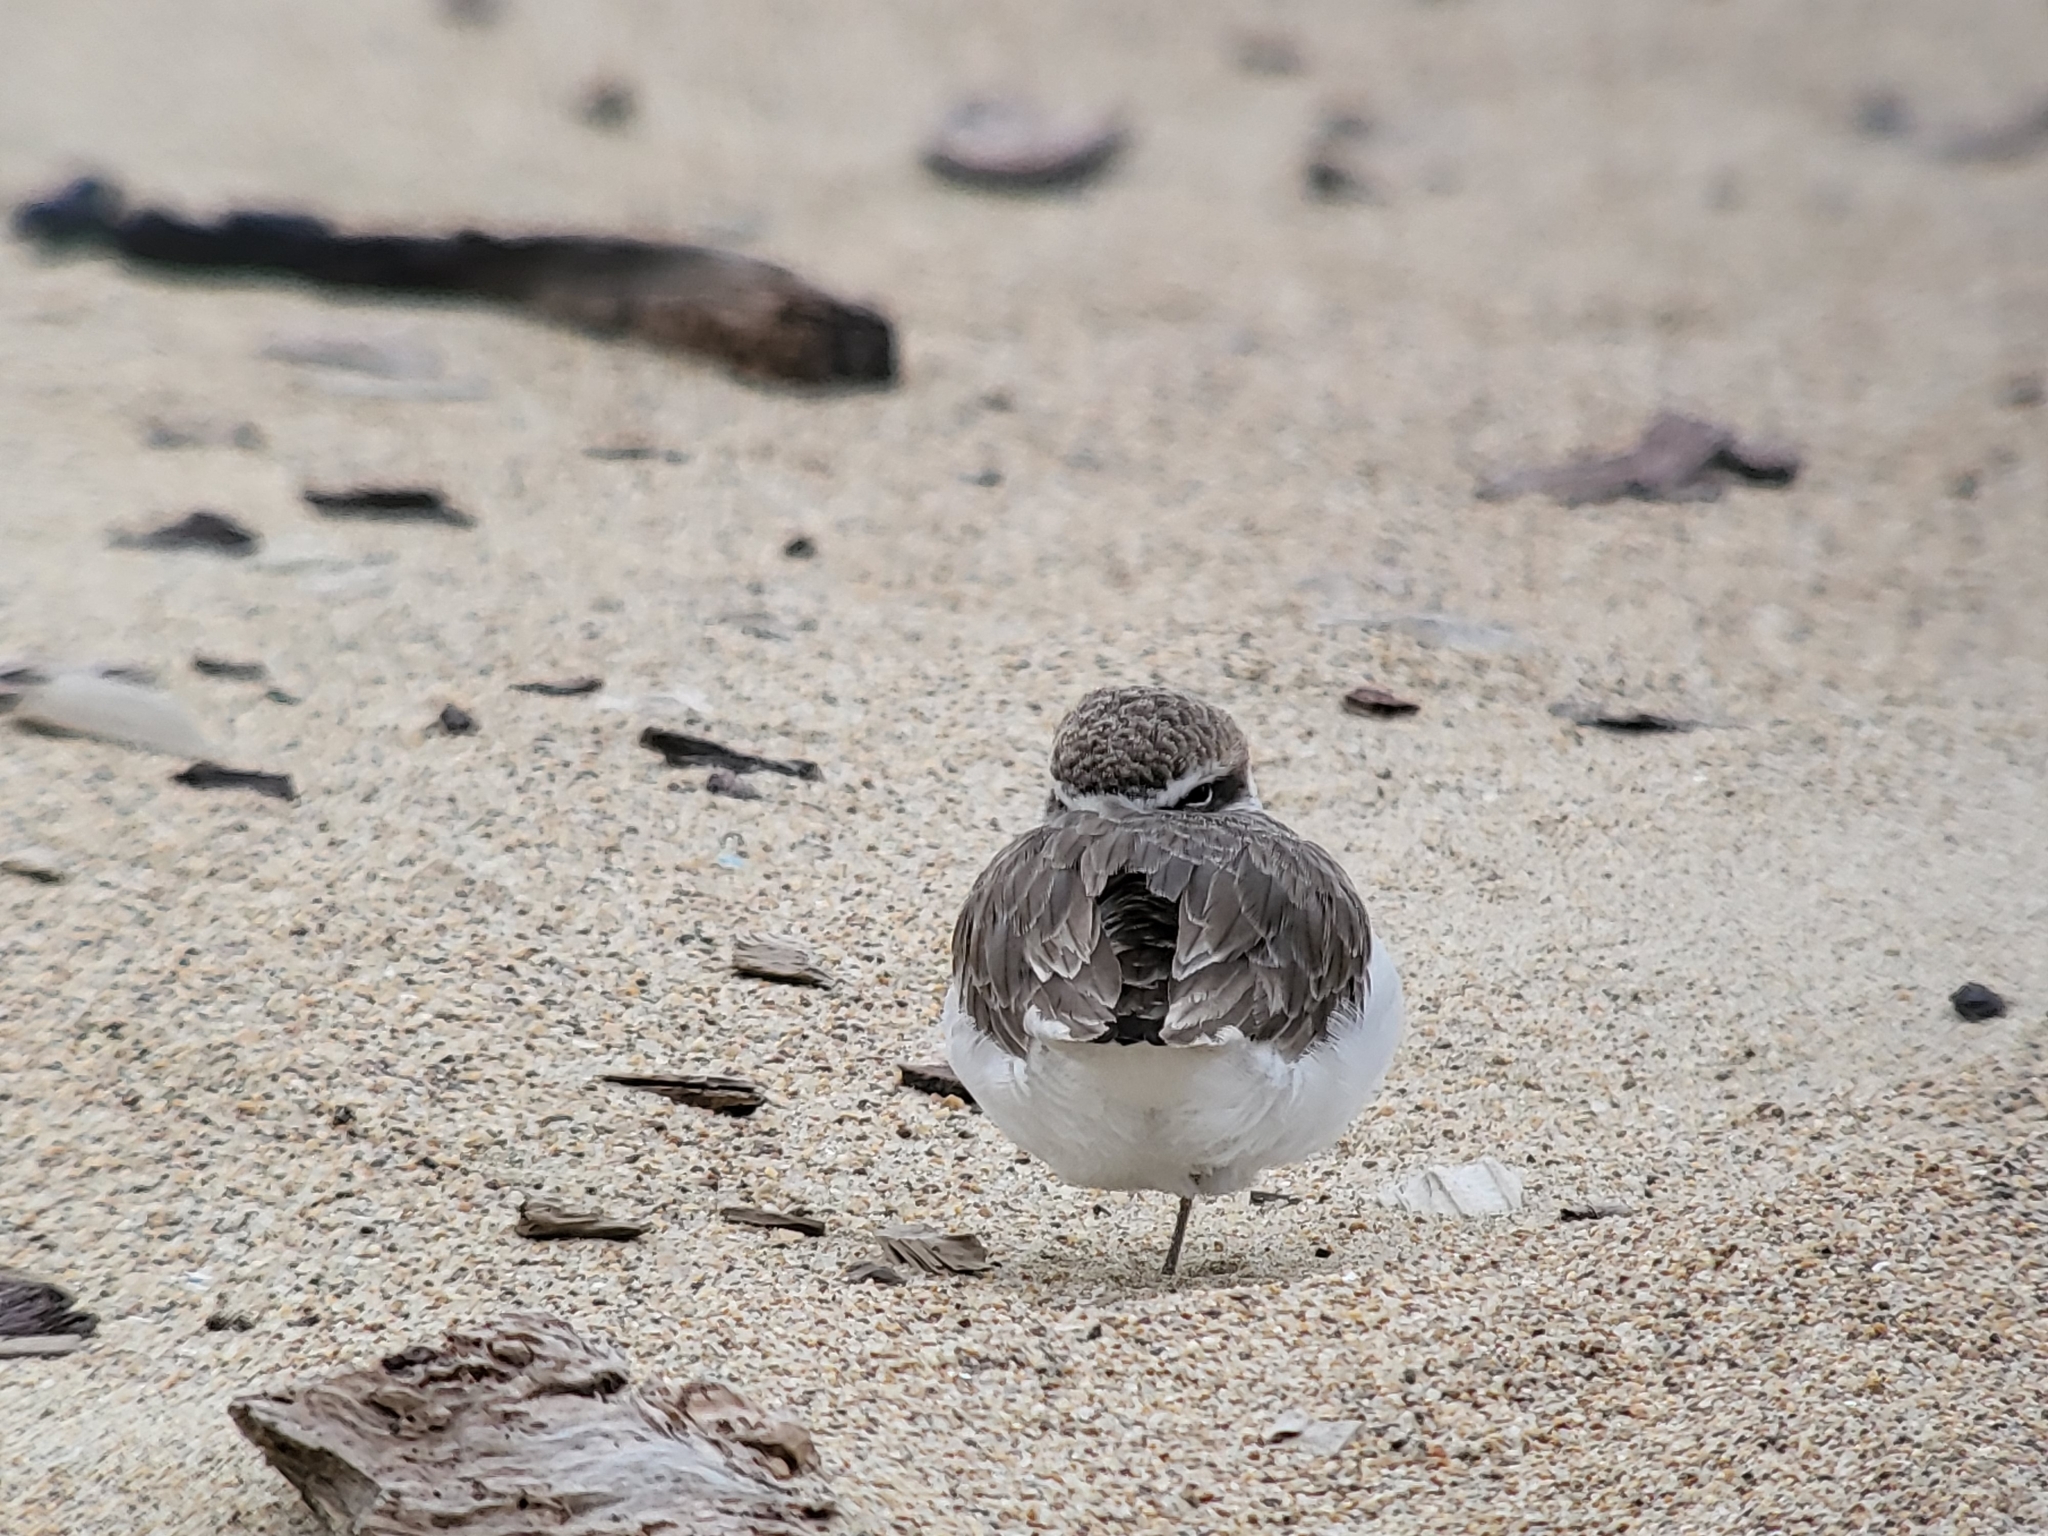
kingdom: Animalia
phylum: Chordata
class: Aves
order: Charadriiformes
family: Charadriidae
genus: Anarhynchus
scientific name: Anarhynchus
